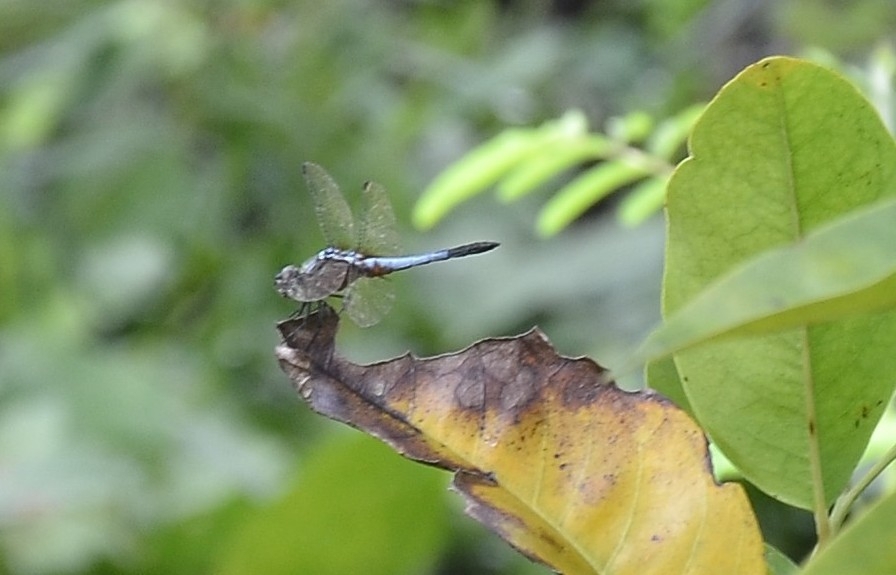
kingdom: Animalia
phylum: Arthropoda
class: Insecta
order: Odonata
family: Libellulidae
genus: Brachydiplax
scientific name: Brachydiplax chalybea
